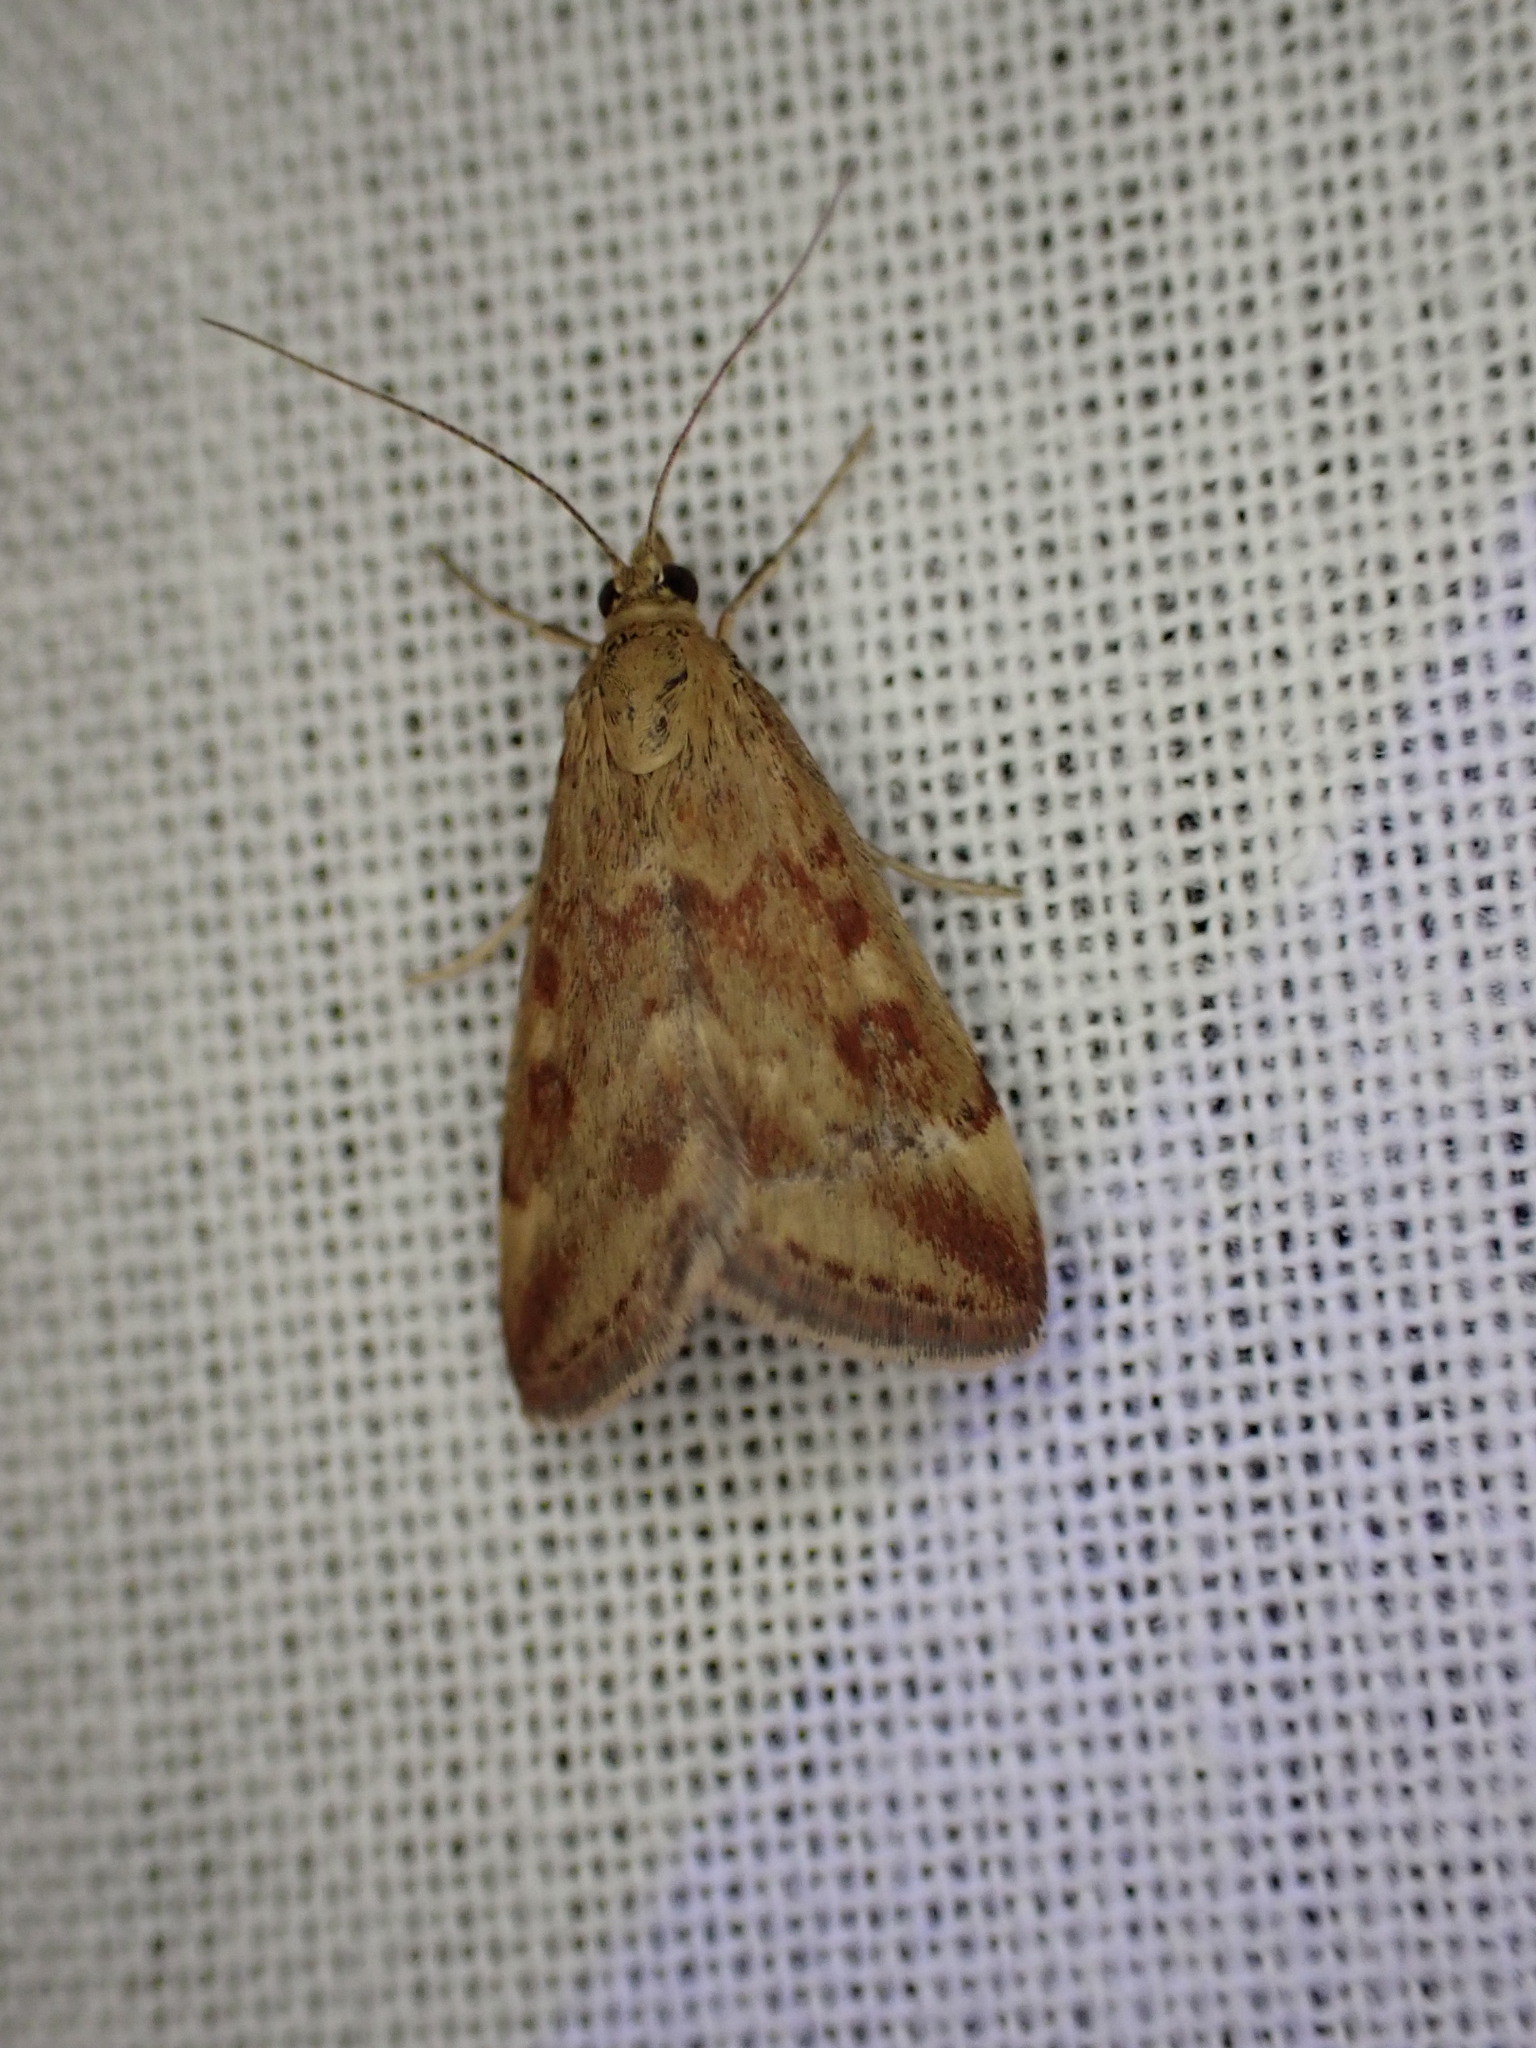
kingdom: Animalia
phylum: Arthropoda
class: Insecta
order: Lepidoptera
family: Crambidae
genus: Pyrausta
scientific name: Pyrausta despicata
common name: Straw-barred pearl
